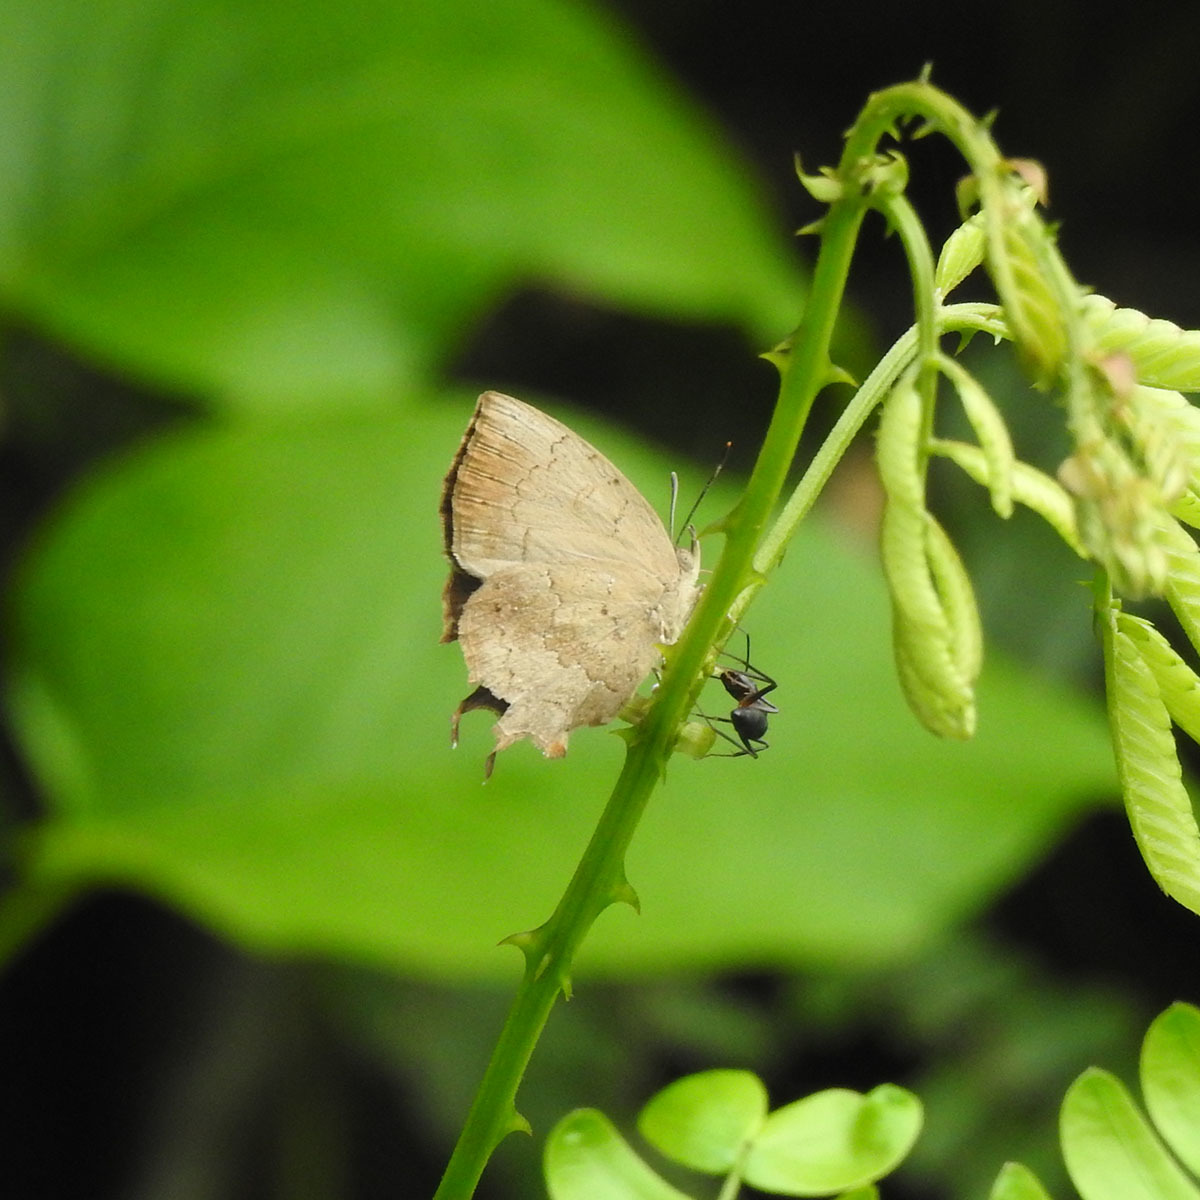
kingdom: Animalia
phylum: Arthropoda
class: Insecta
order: Lepidoptera
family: Lycaenidae
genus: Surendra
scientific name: Surendra quercetorum
